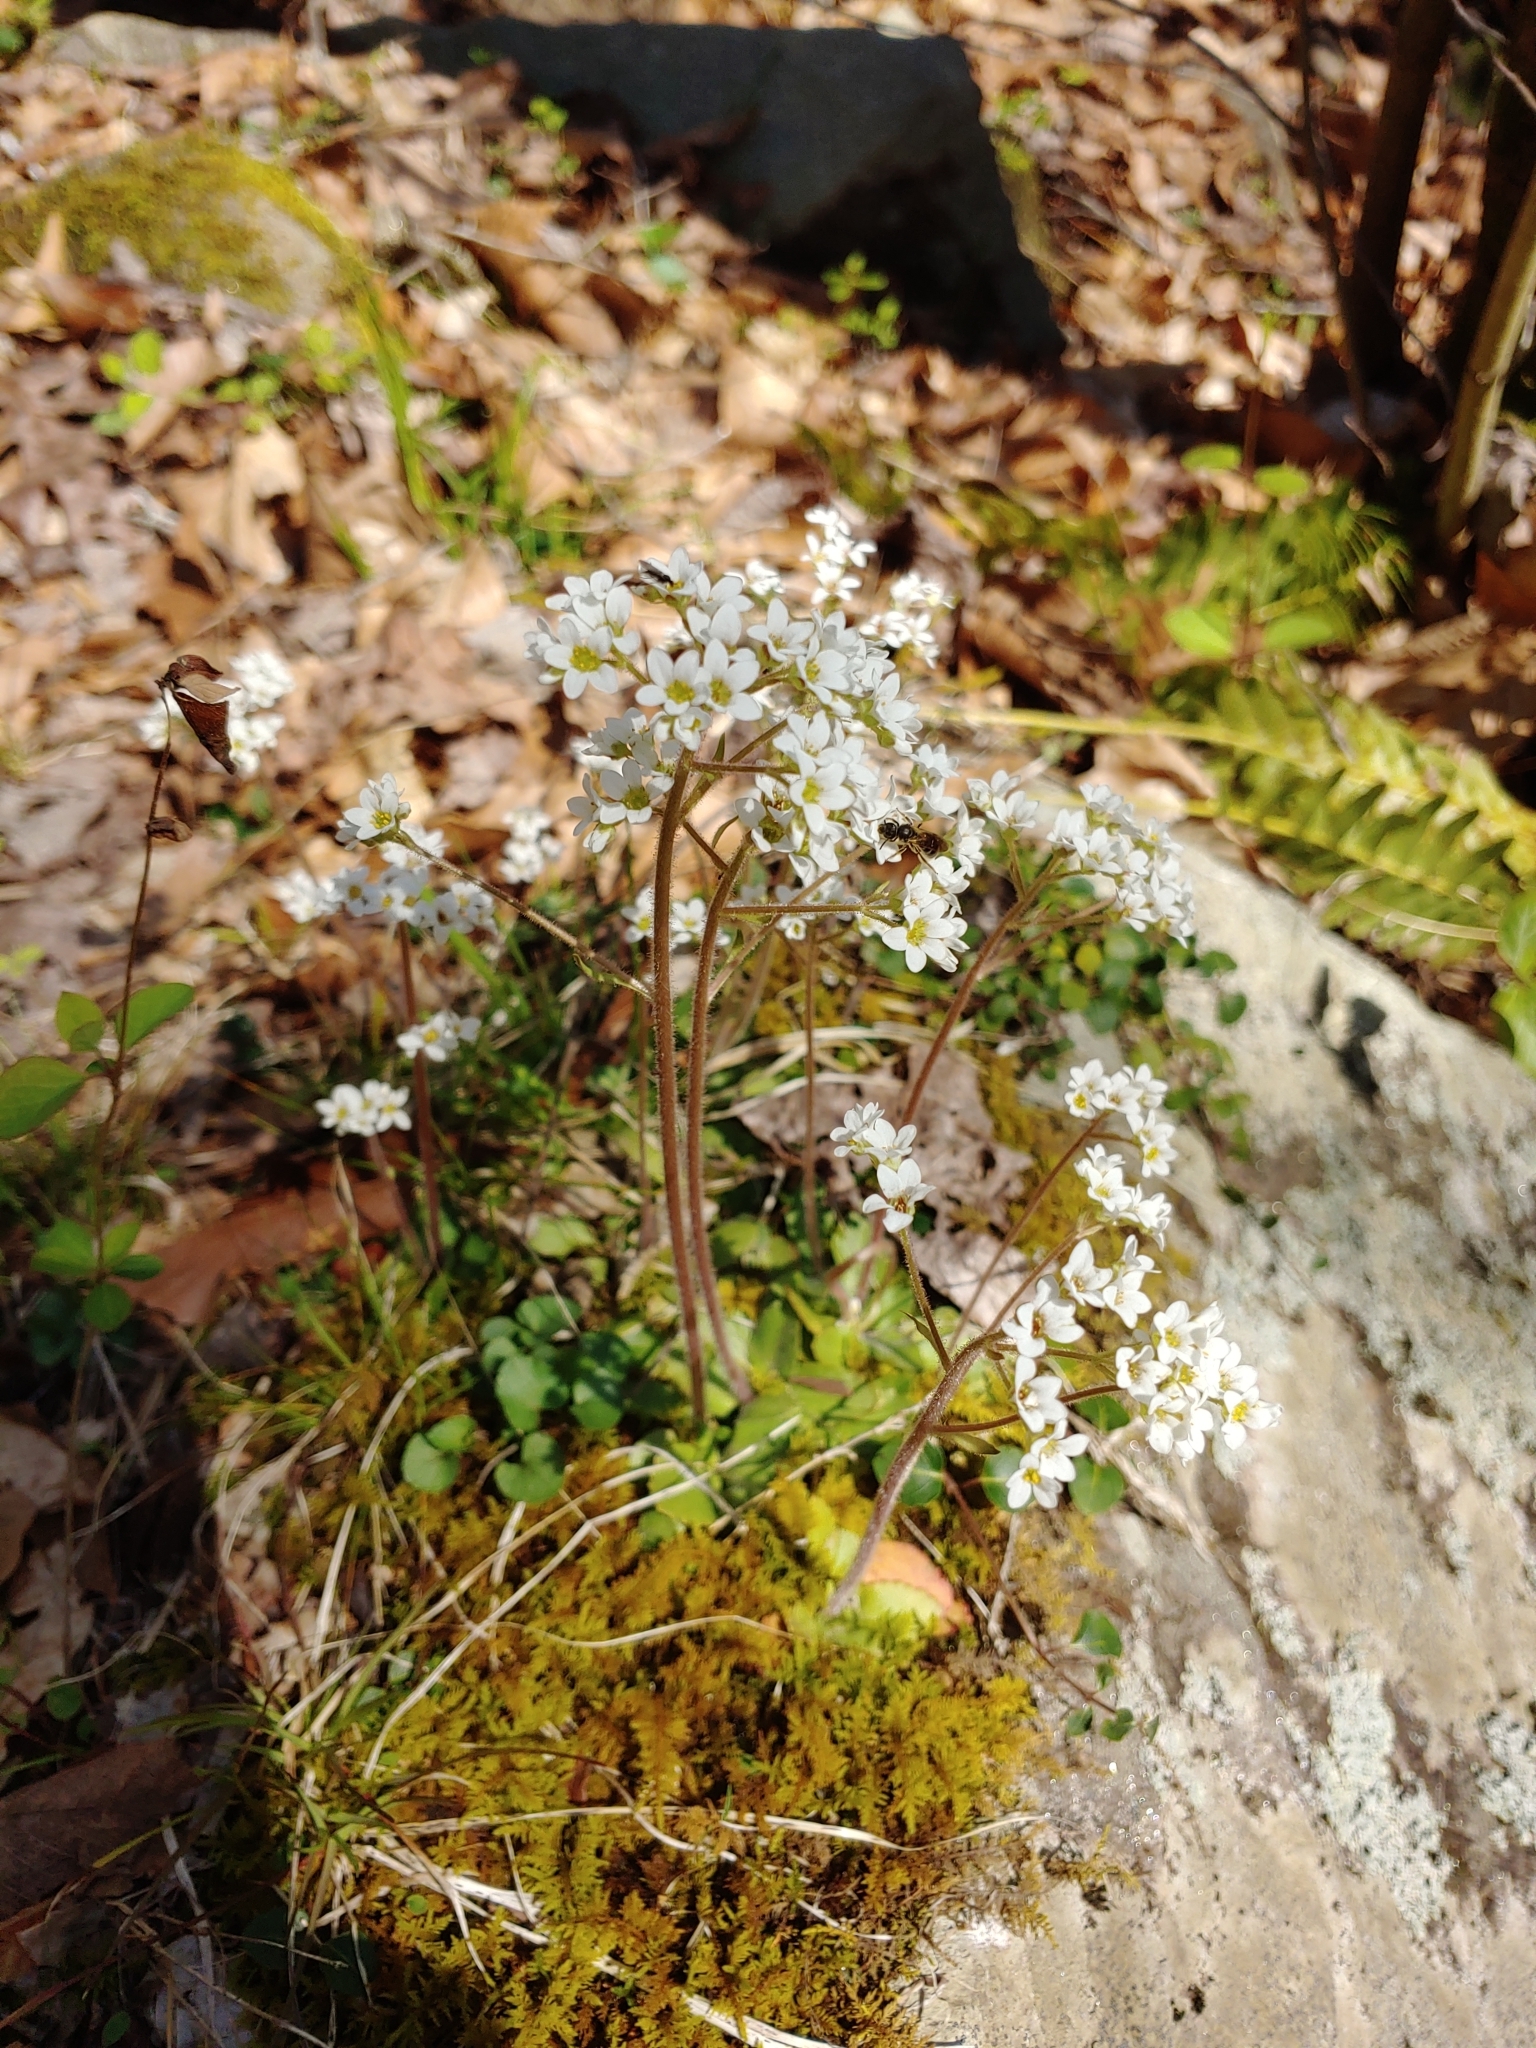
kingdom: Plantae
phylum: Tracheophyta
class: Magnoliopsida
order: Saxifragales
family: Saxifragaceae
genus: Micranthes
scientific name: Micranthes virginiensis
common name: Early saxifrage
